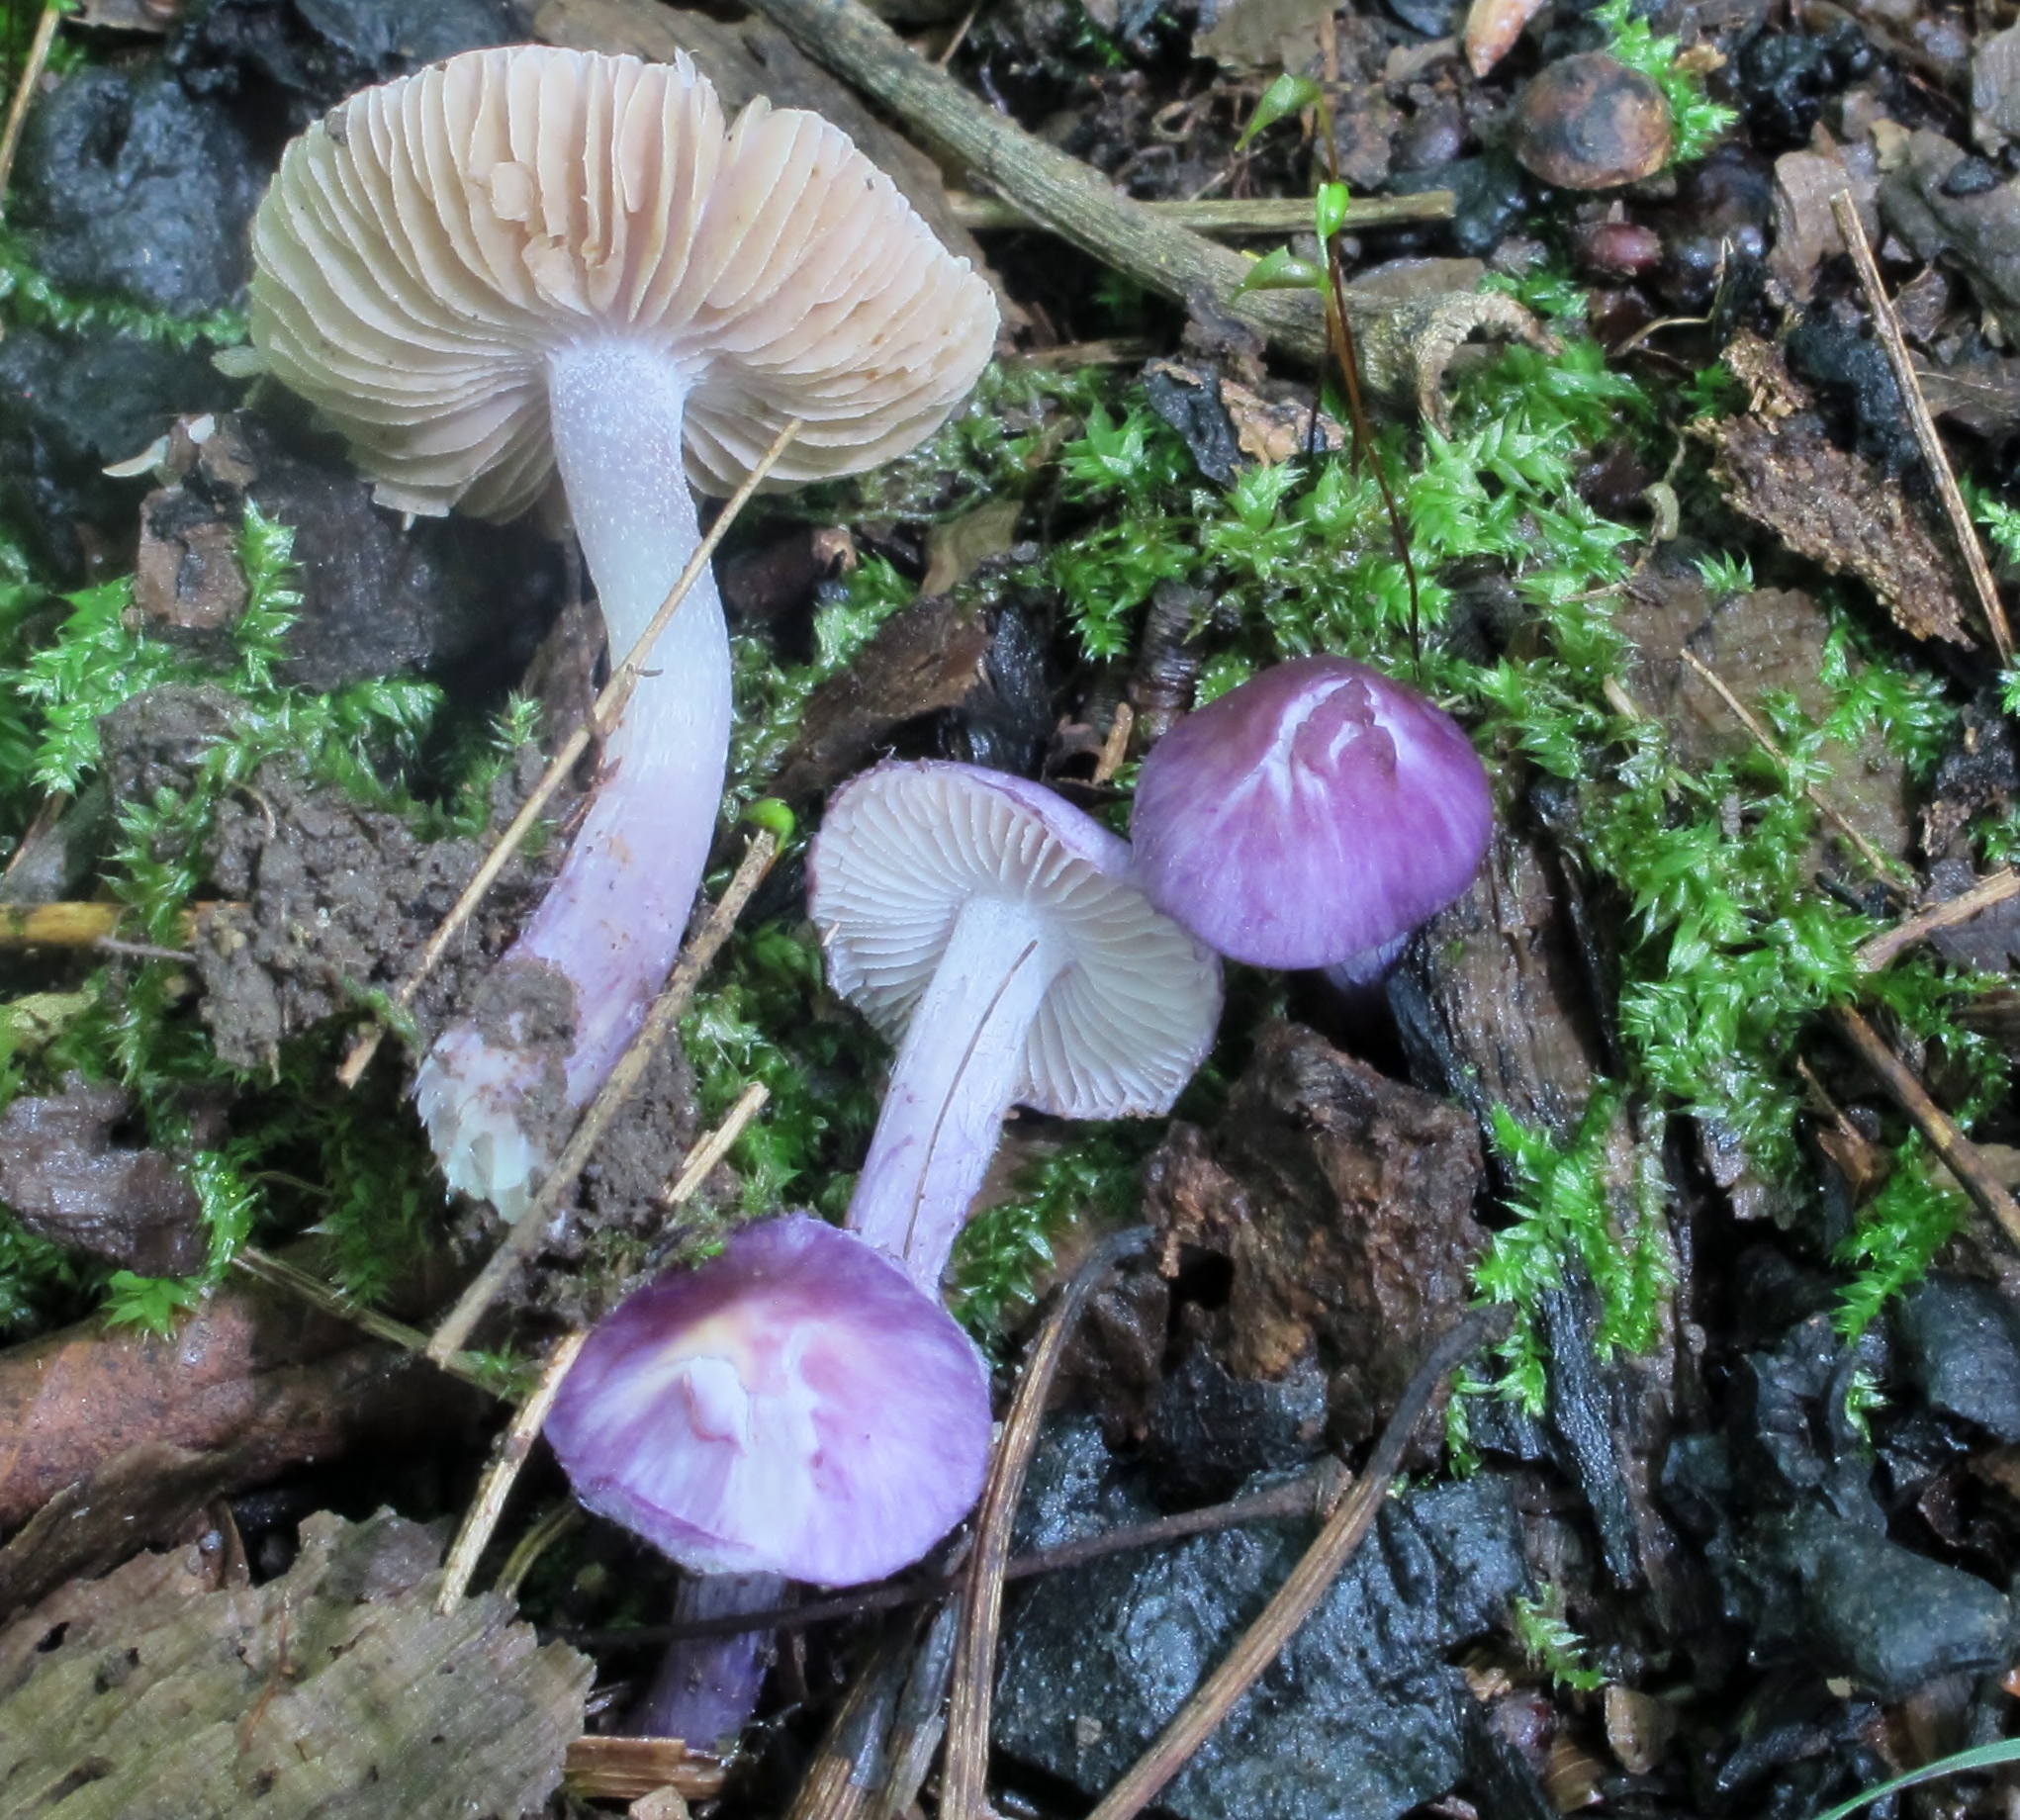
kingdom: Fungi
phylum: Basidiomycota
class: Agaricomycetes
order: Agaricales
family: Inocybaceae
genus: Inocybe
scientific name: Inocybe geophylla
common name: White fibrecap
